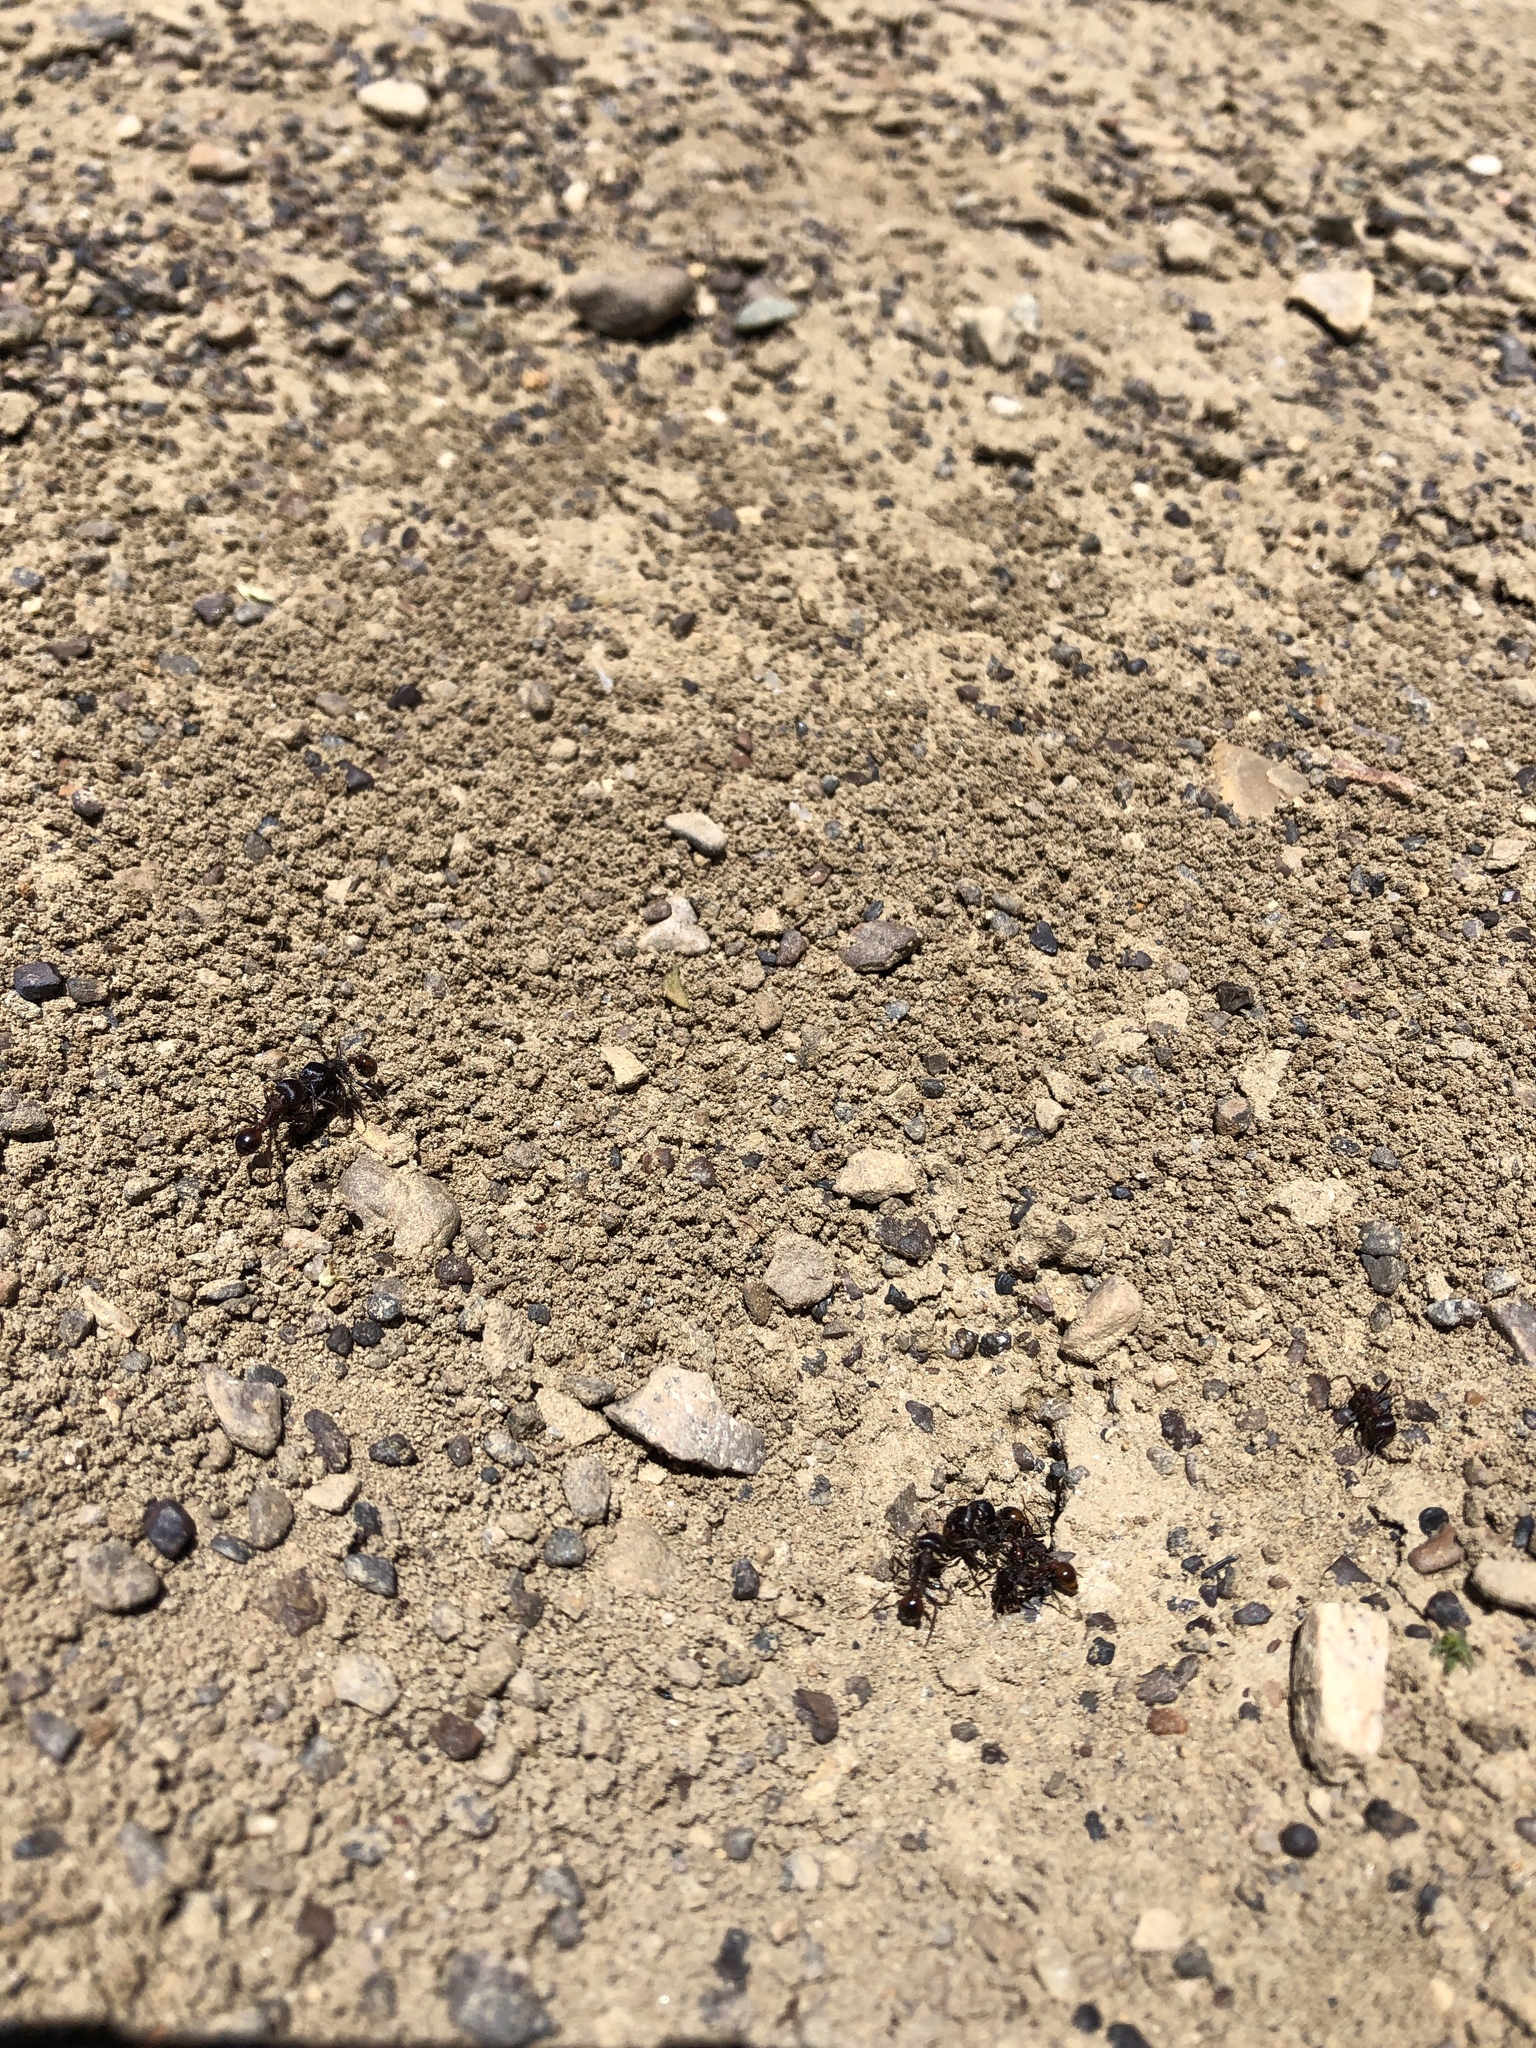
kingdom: Animalia
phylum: Arthropoda
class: Insecta
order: Hymenoptera
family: Formicidae
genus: Pogonomyrmex
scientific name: Pogonomyrmex rugosus
